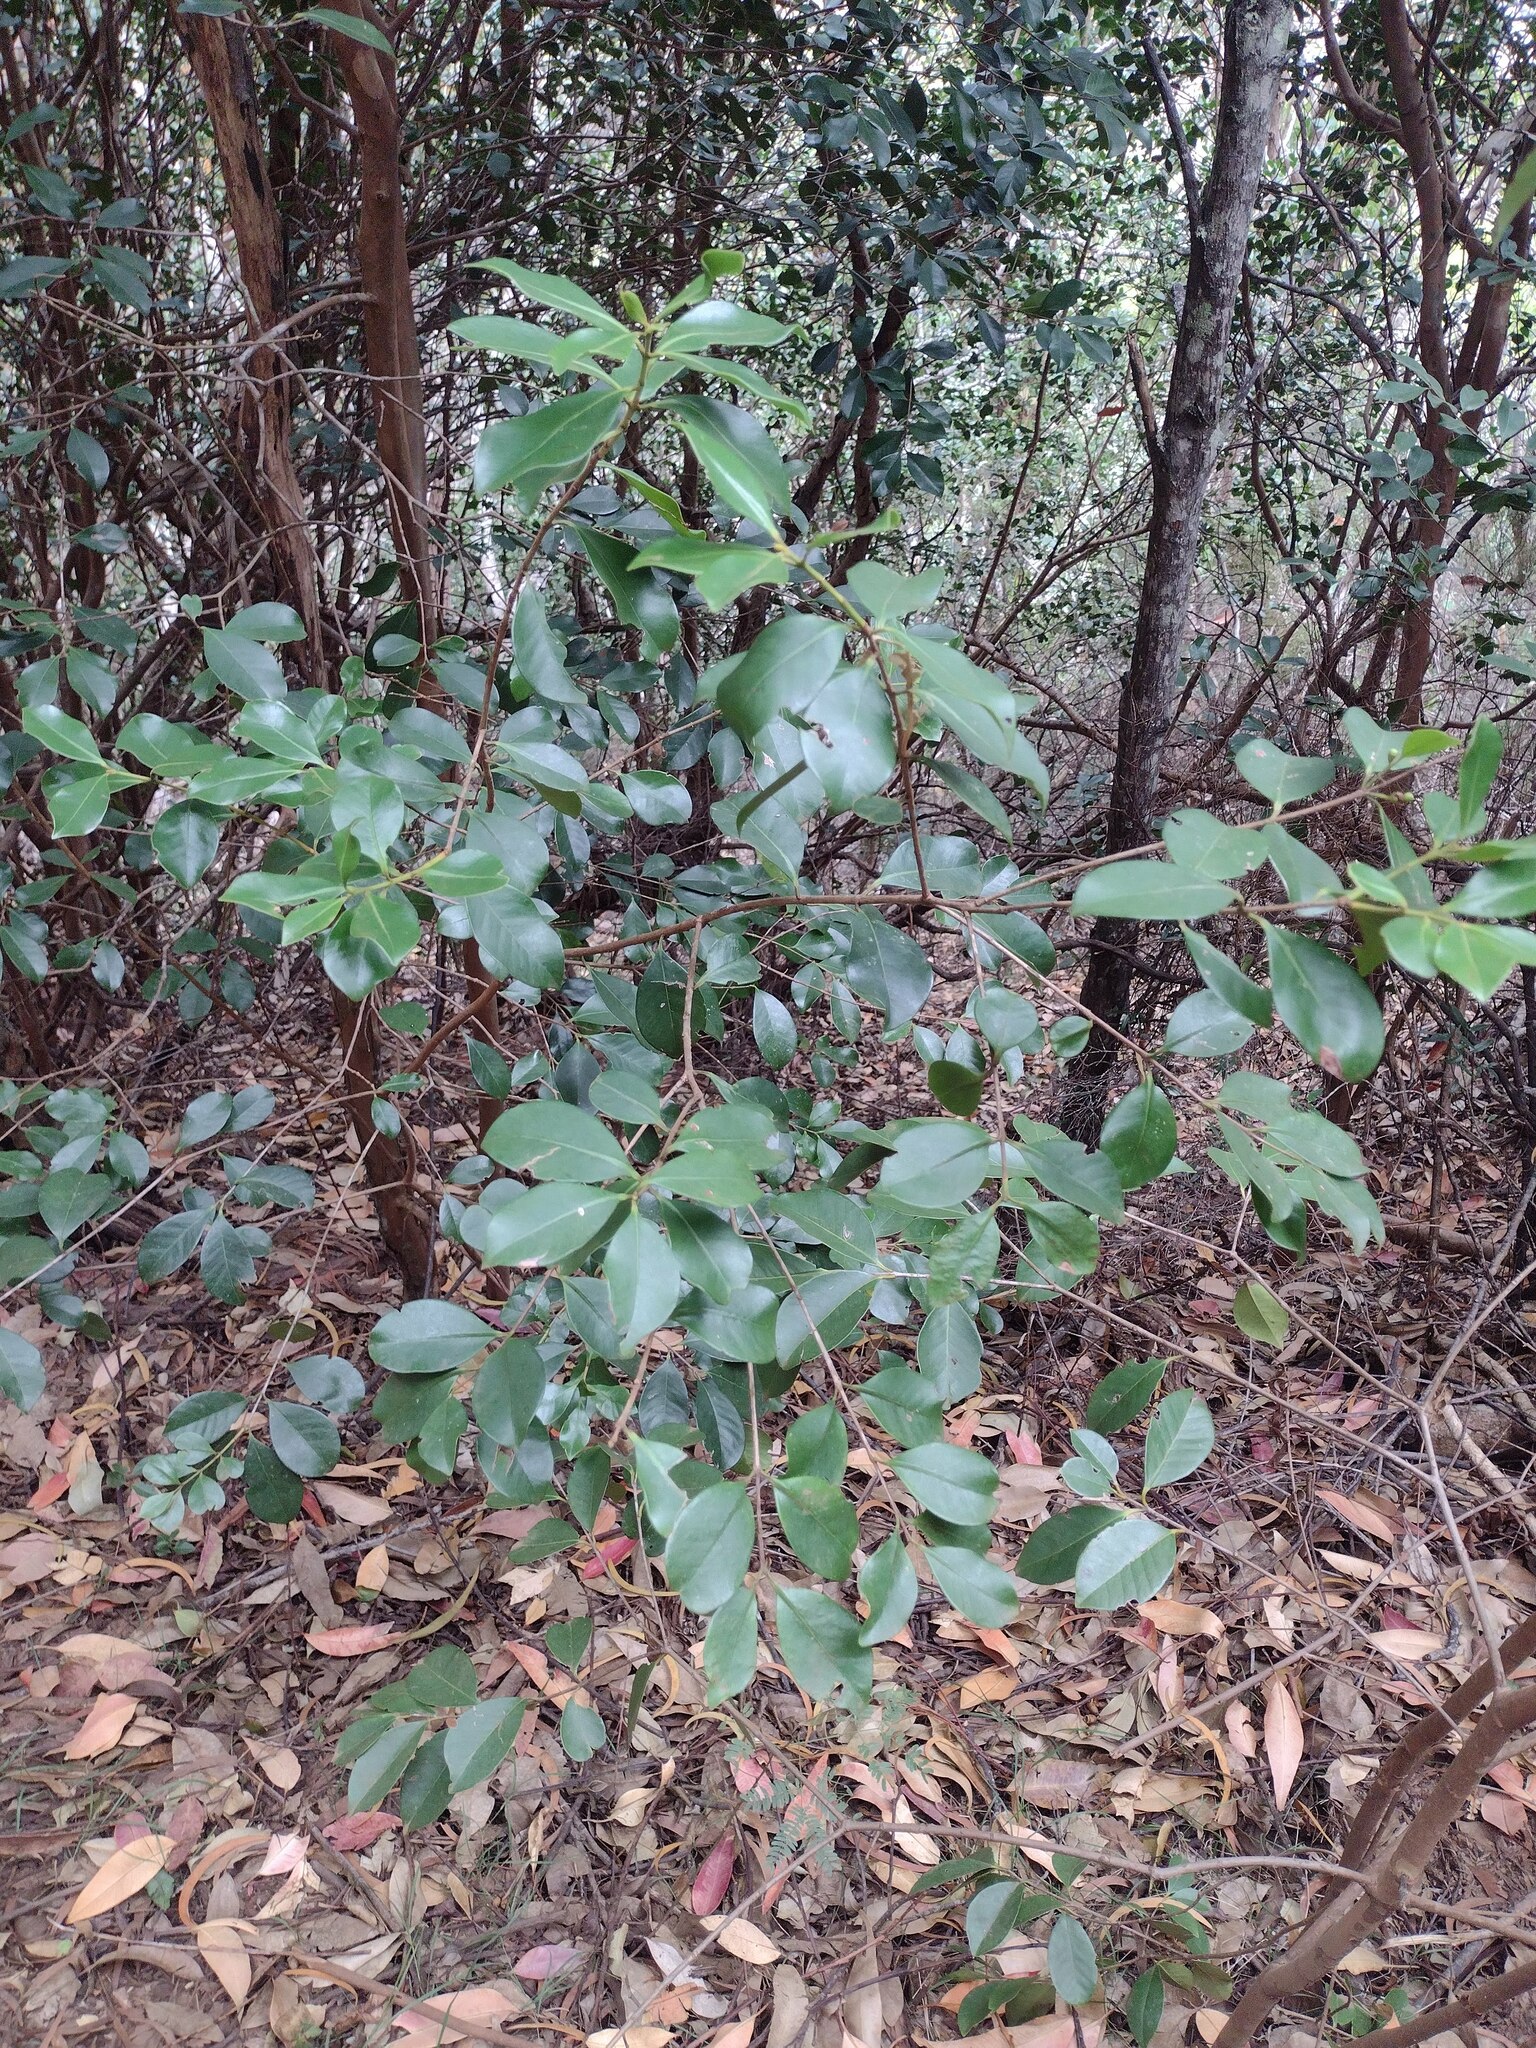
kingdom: Plantae
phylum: Tracheophyta
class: Magnoliopsida
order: Myrtales
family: Myrtaceae
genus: Psidium
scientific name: Psidium cattleianum
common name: Strawberry guava
